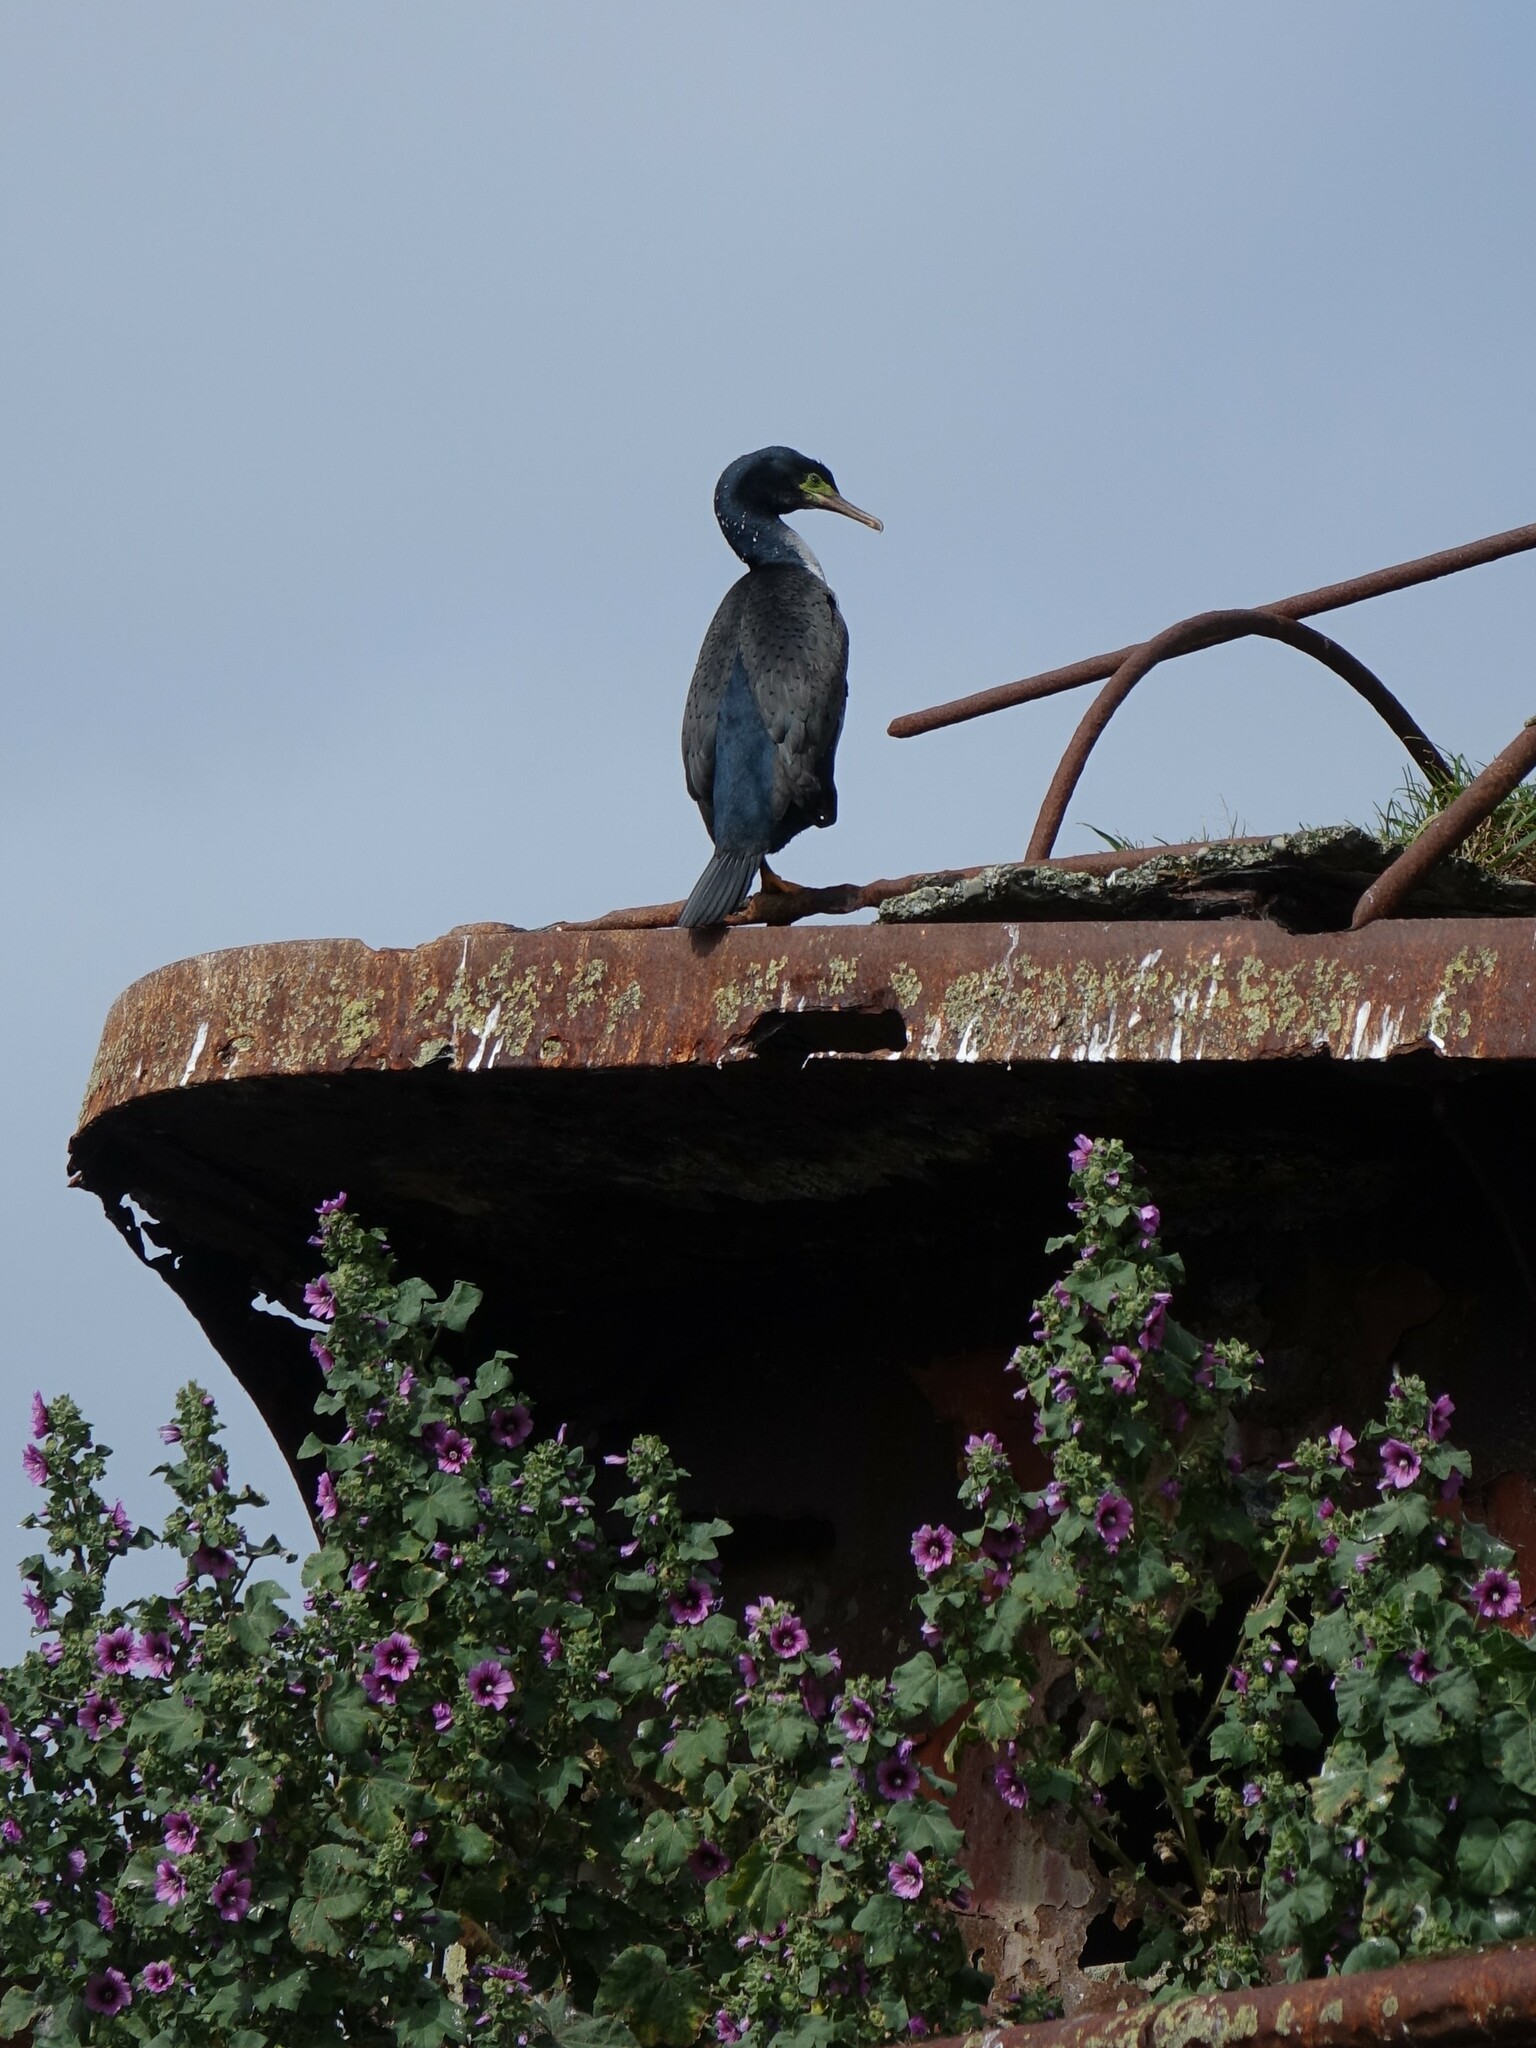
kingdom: Animalia
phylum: Chordata
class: Aves
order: Suliformes
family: Phalacrocoracidae
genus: Phalacrocorax
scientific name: Phalacrocorax featherstoni
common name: Pitt shag
